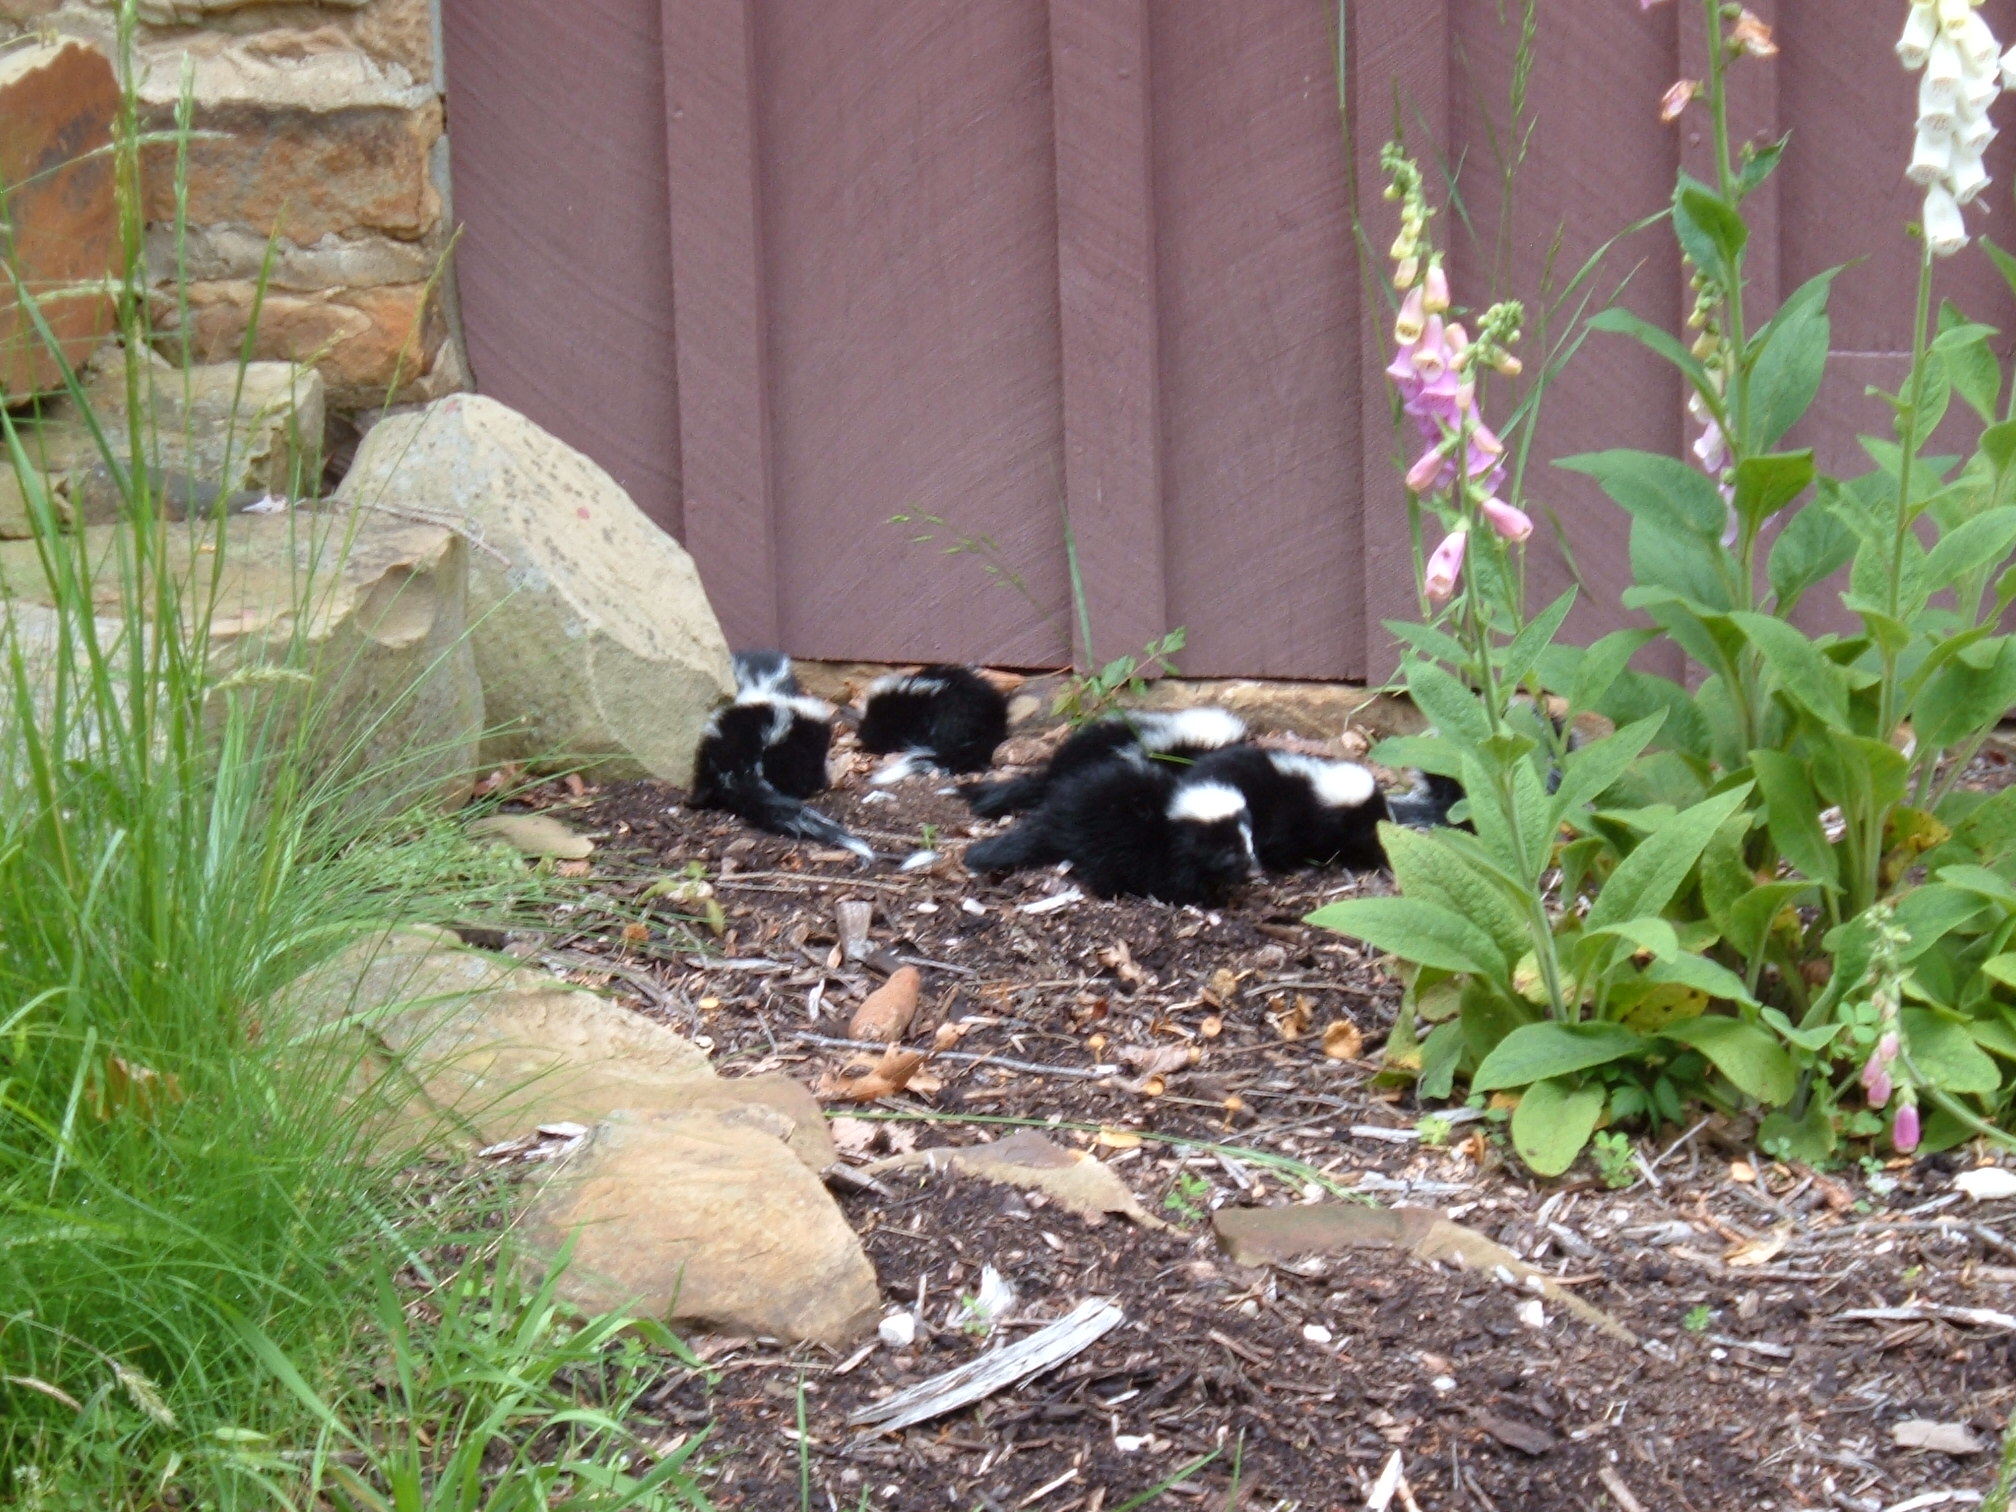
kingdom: Animalia
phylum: Chordata
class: Mammalia
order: Carnivora
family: Mephitidae
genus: Mephitis
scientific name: Mephitis mephitis
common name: Striped skunk
